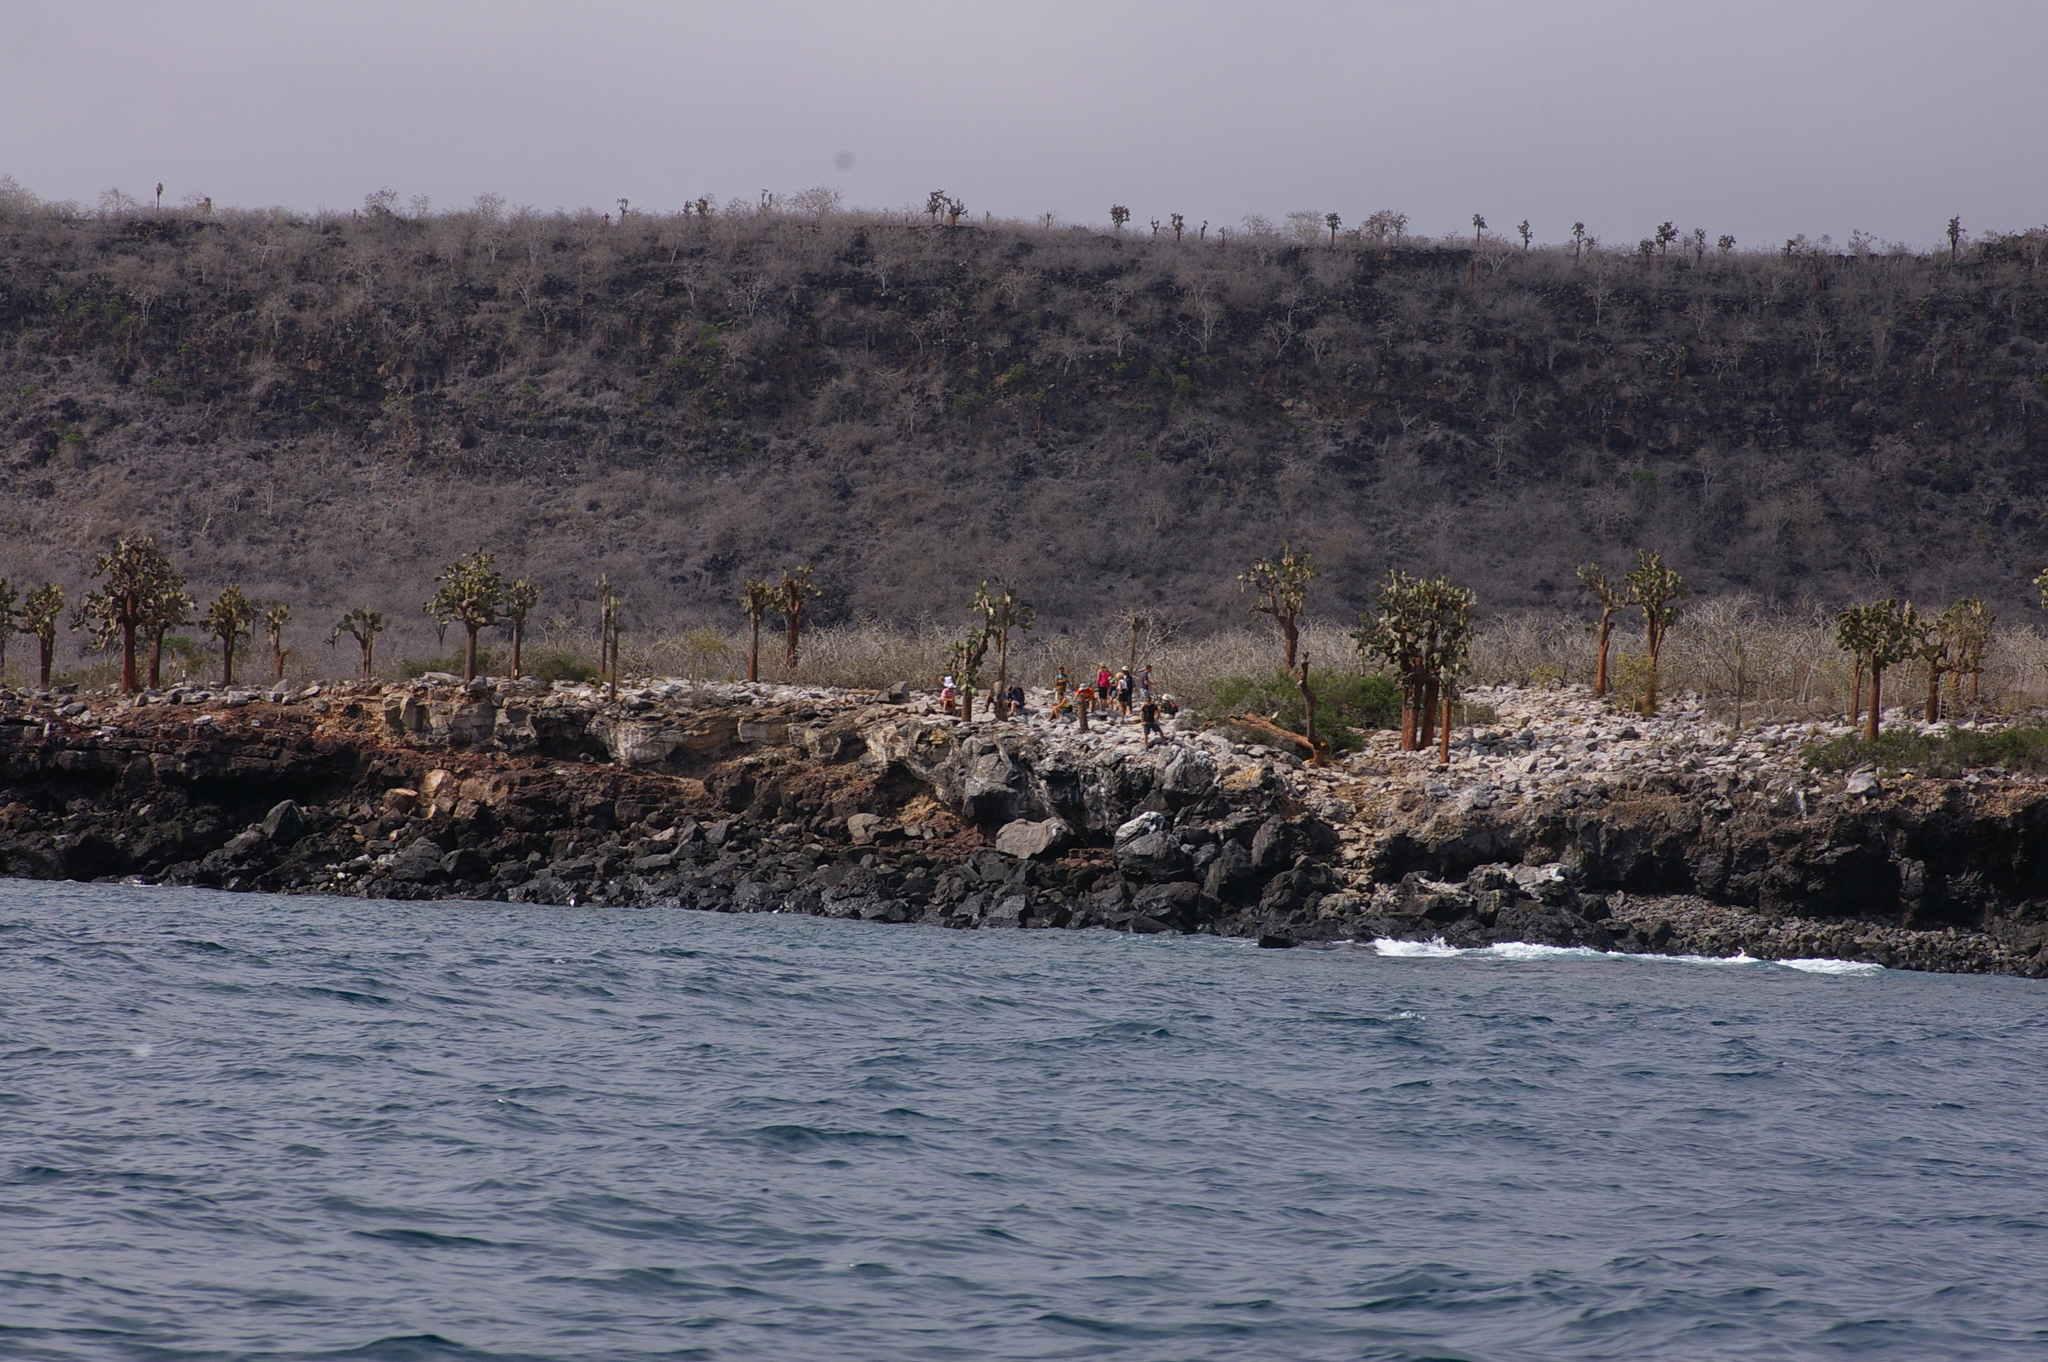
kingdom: Plantae
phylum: Tracheophyta
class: Magnoliopsida
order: Caryophyllales
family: Cactaceae
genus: Opuntia
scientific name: Opuntia galapageia
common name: Galápagos prickly pear
